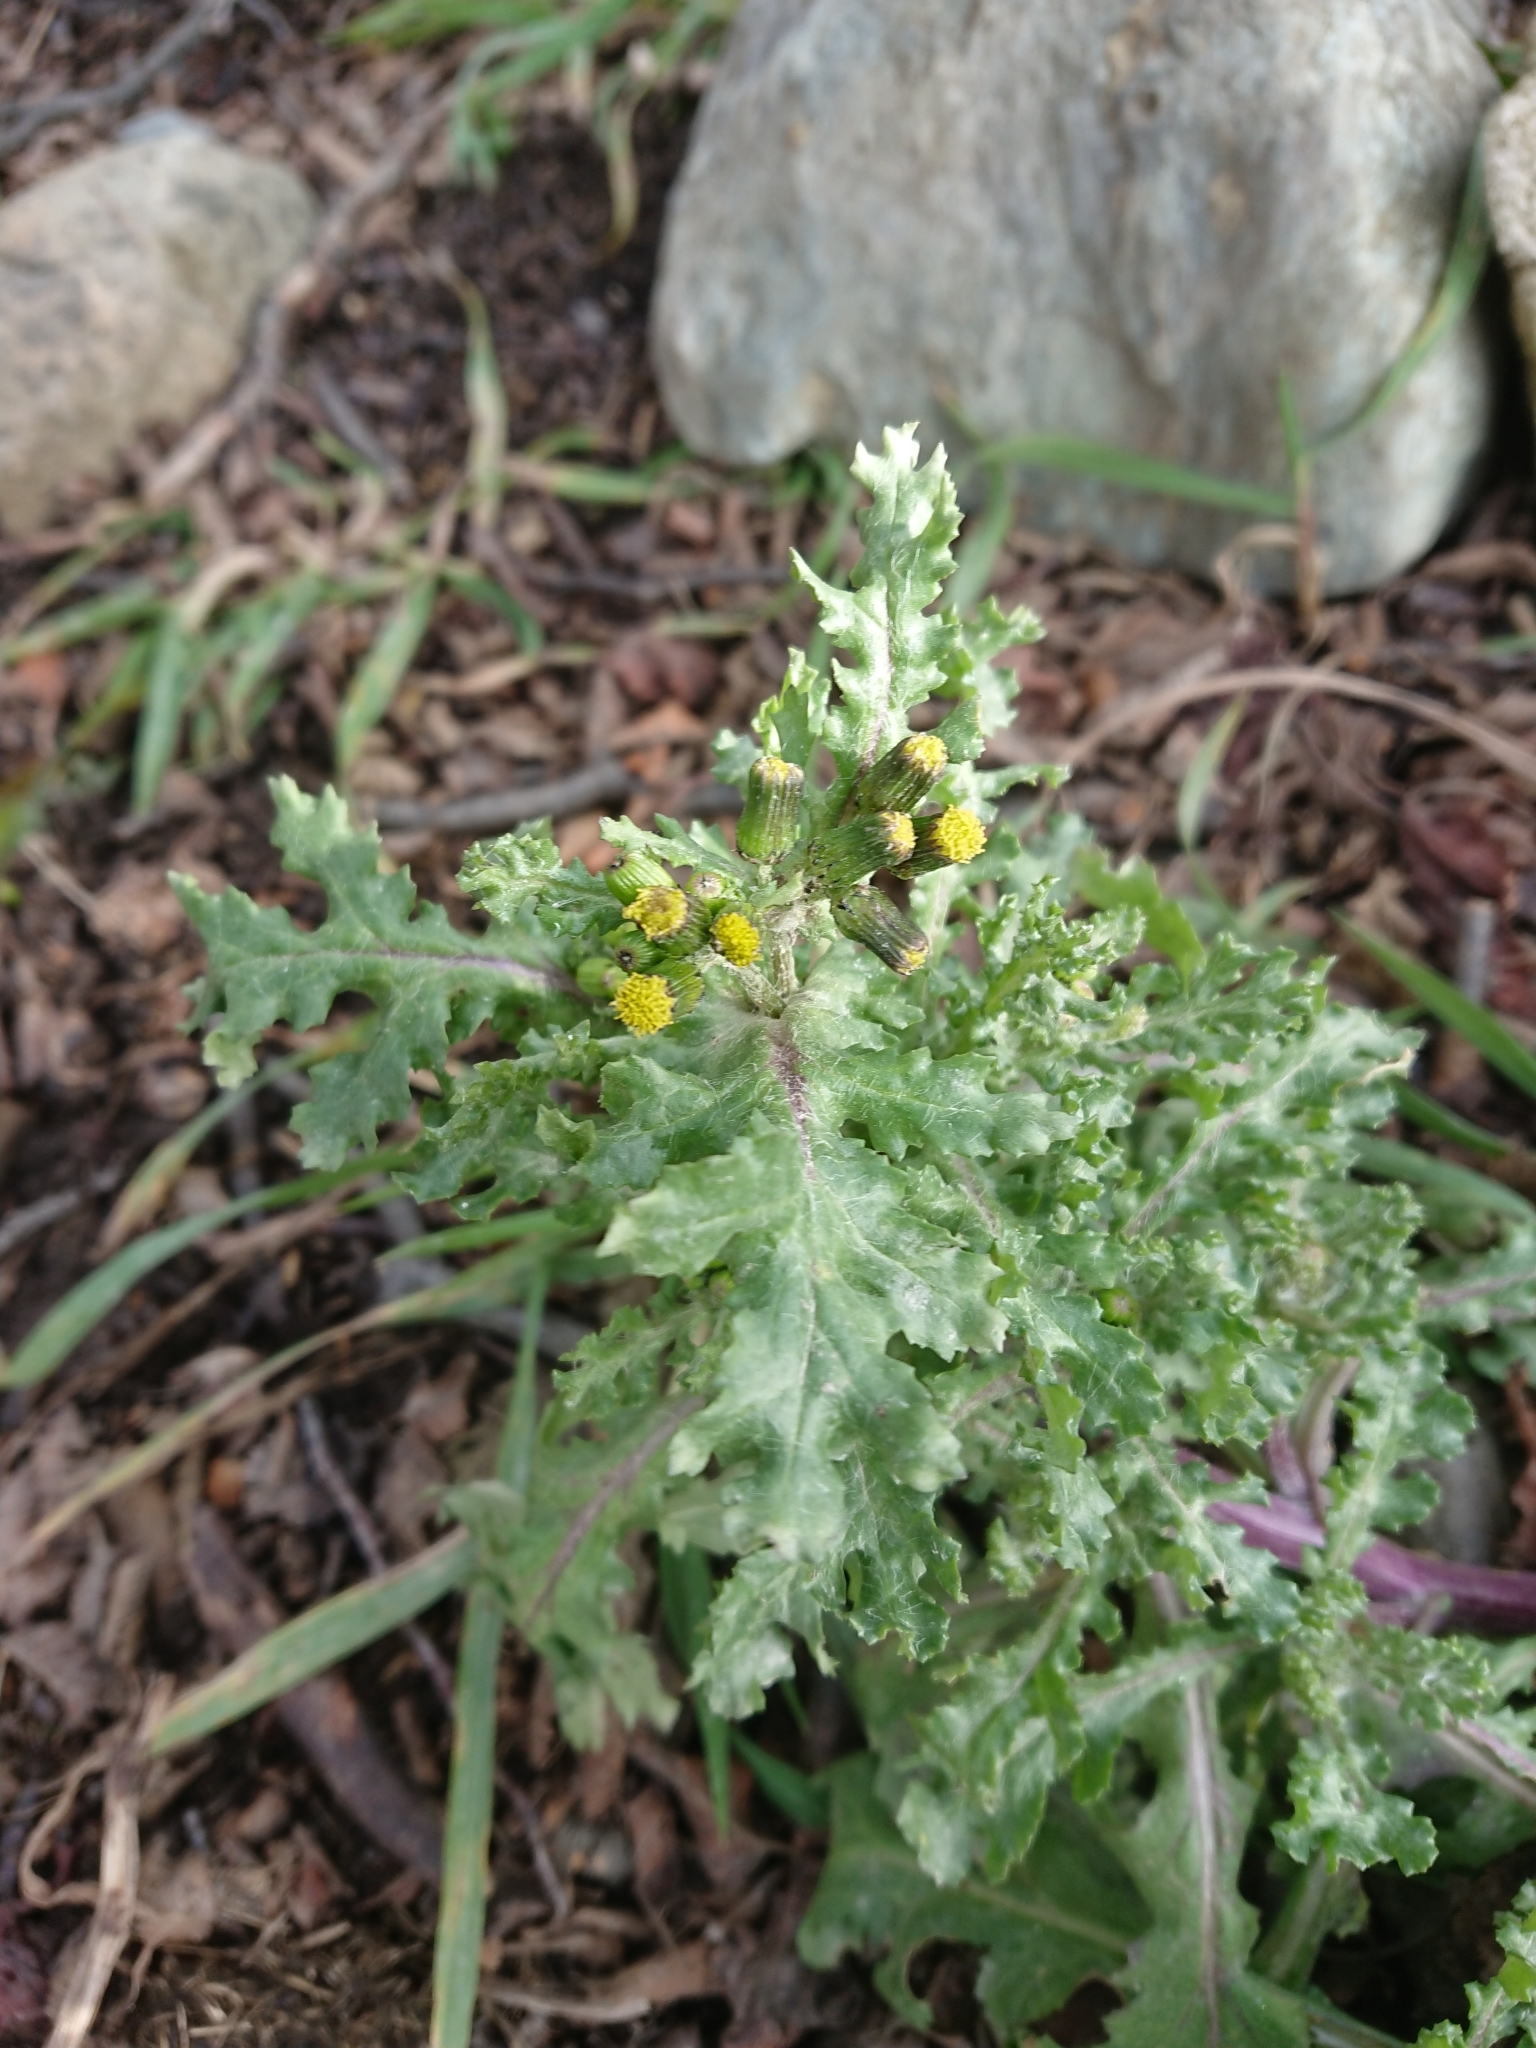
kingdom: Plantae
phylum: Tracheophyta
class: Magnoliopsida
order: Asterales
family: Asteraceae
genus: Senecio
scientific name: Senecio vulgaris
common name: Old-man-in-the-spring
